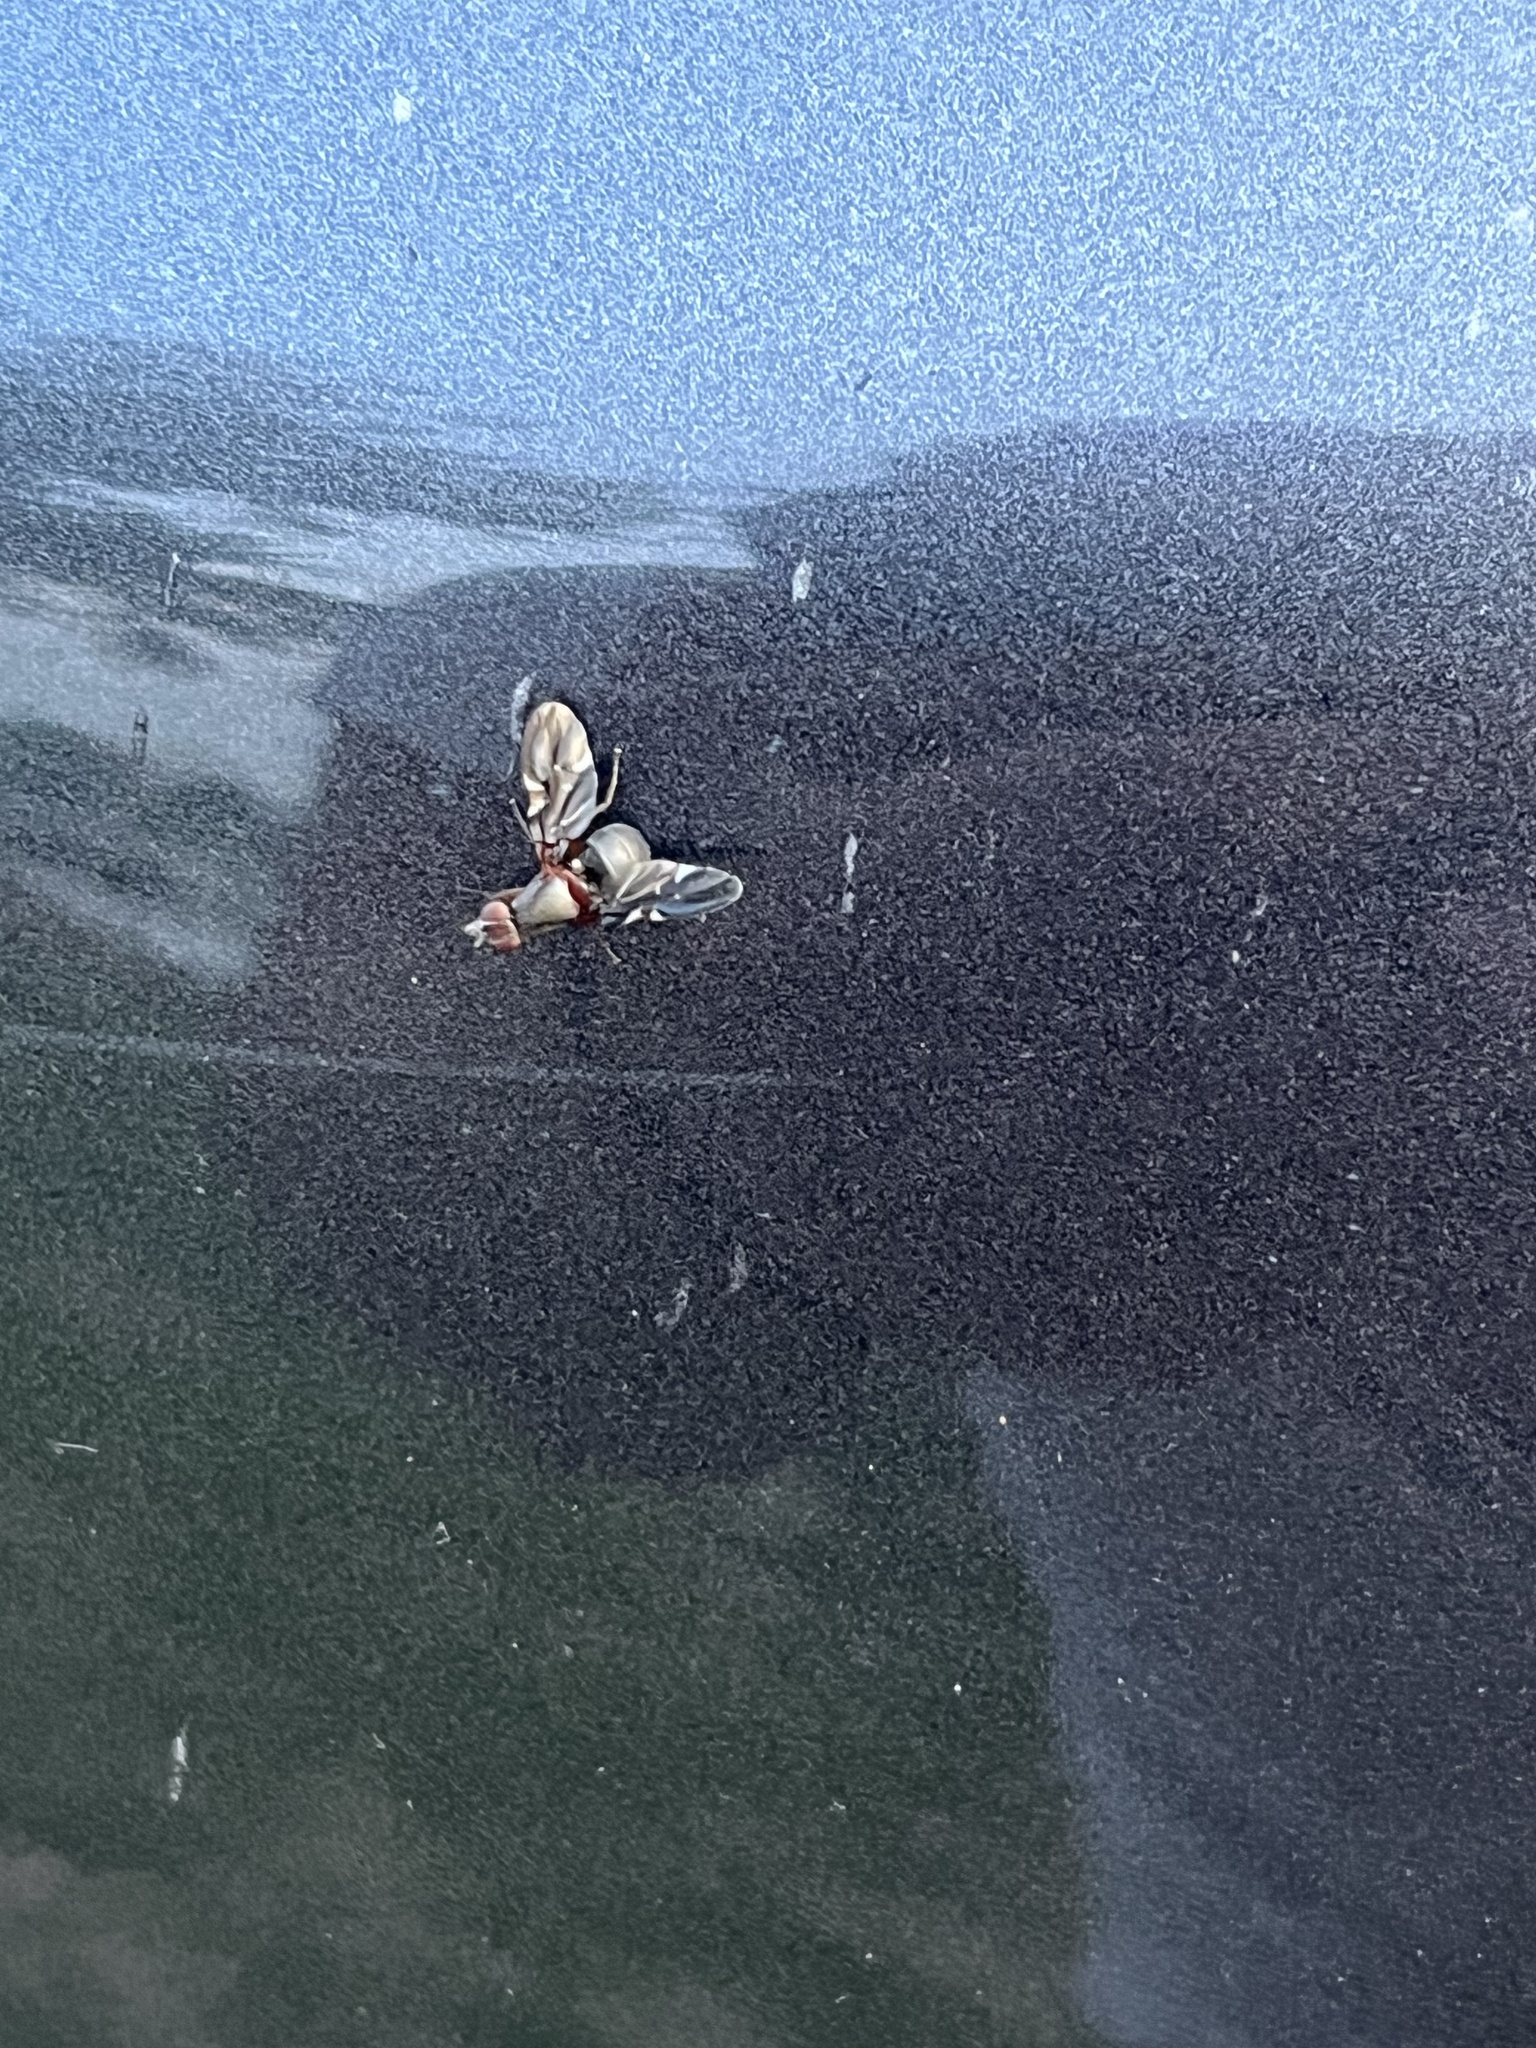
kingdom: Animalia
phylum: Arthropoda
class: Insecta
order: Diptera
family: Ulidiidae
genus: Delphinia
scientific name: Delphinia picta
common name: Common picture-winged fly
